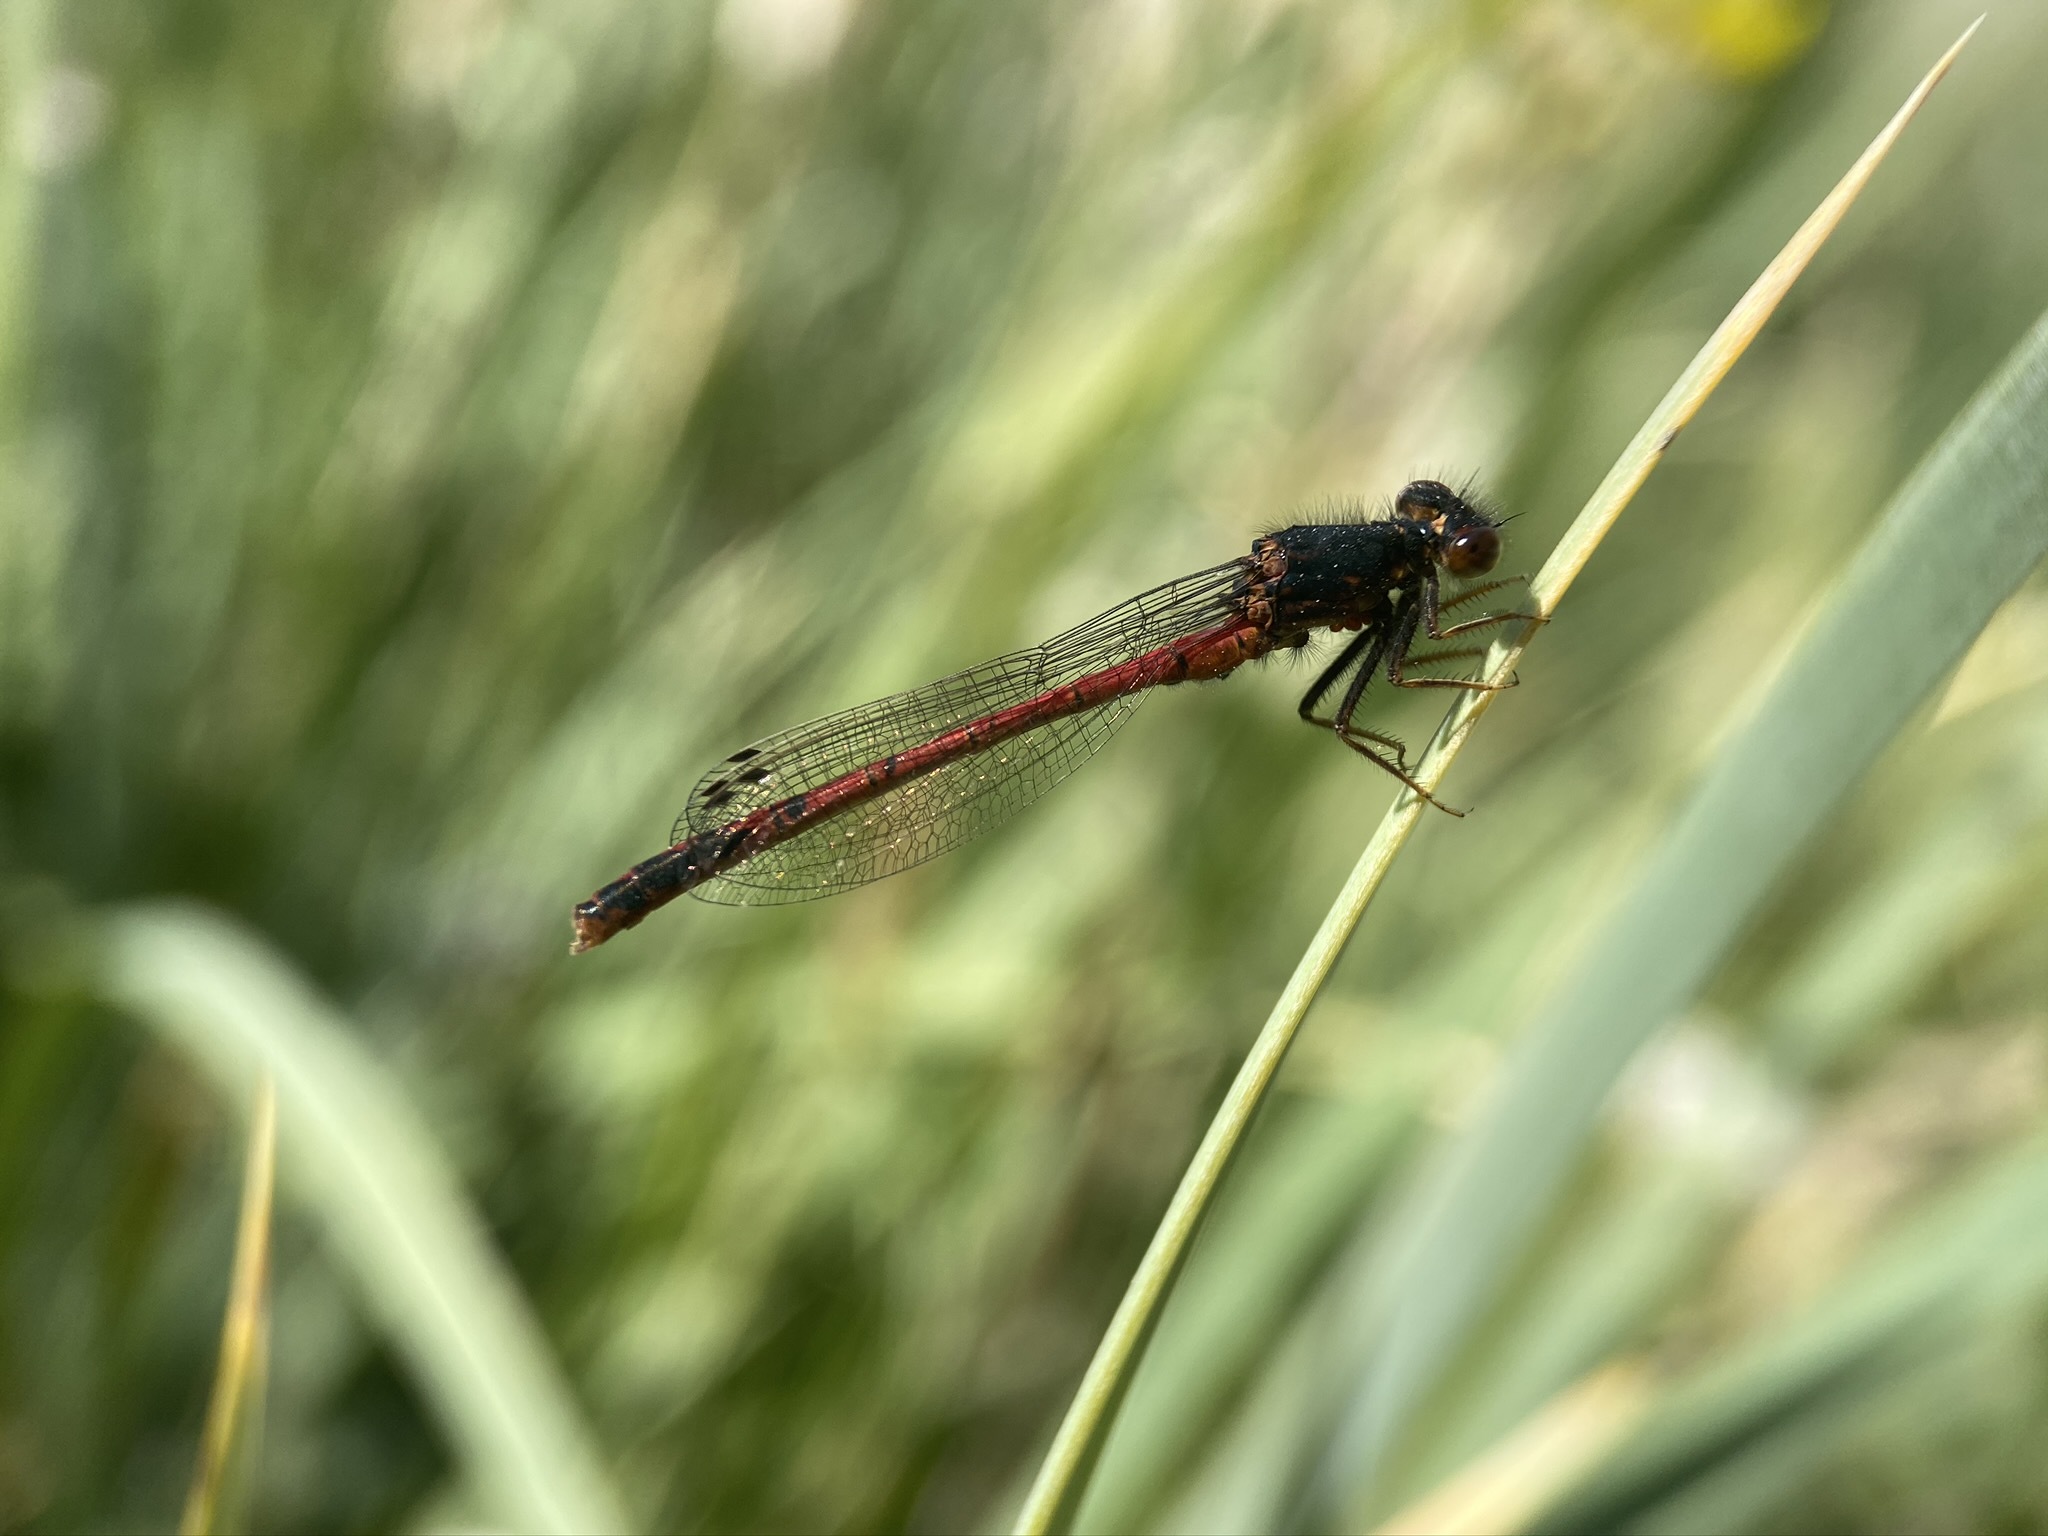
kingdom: Animalia
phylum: Arthropoda
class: Insecta
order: Odonata
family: Coenagrionidae
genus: Amphiagrion
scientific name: Amphiagrion abbreviatum
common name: Western red damsel
